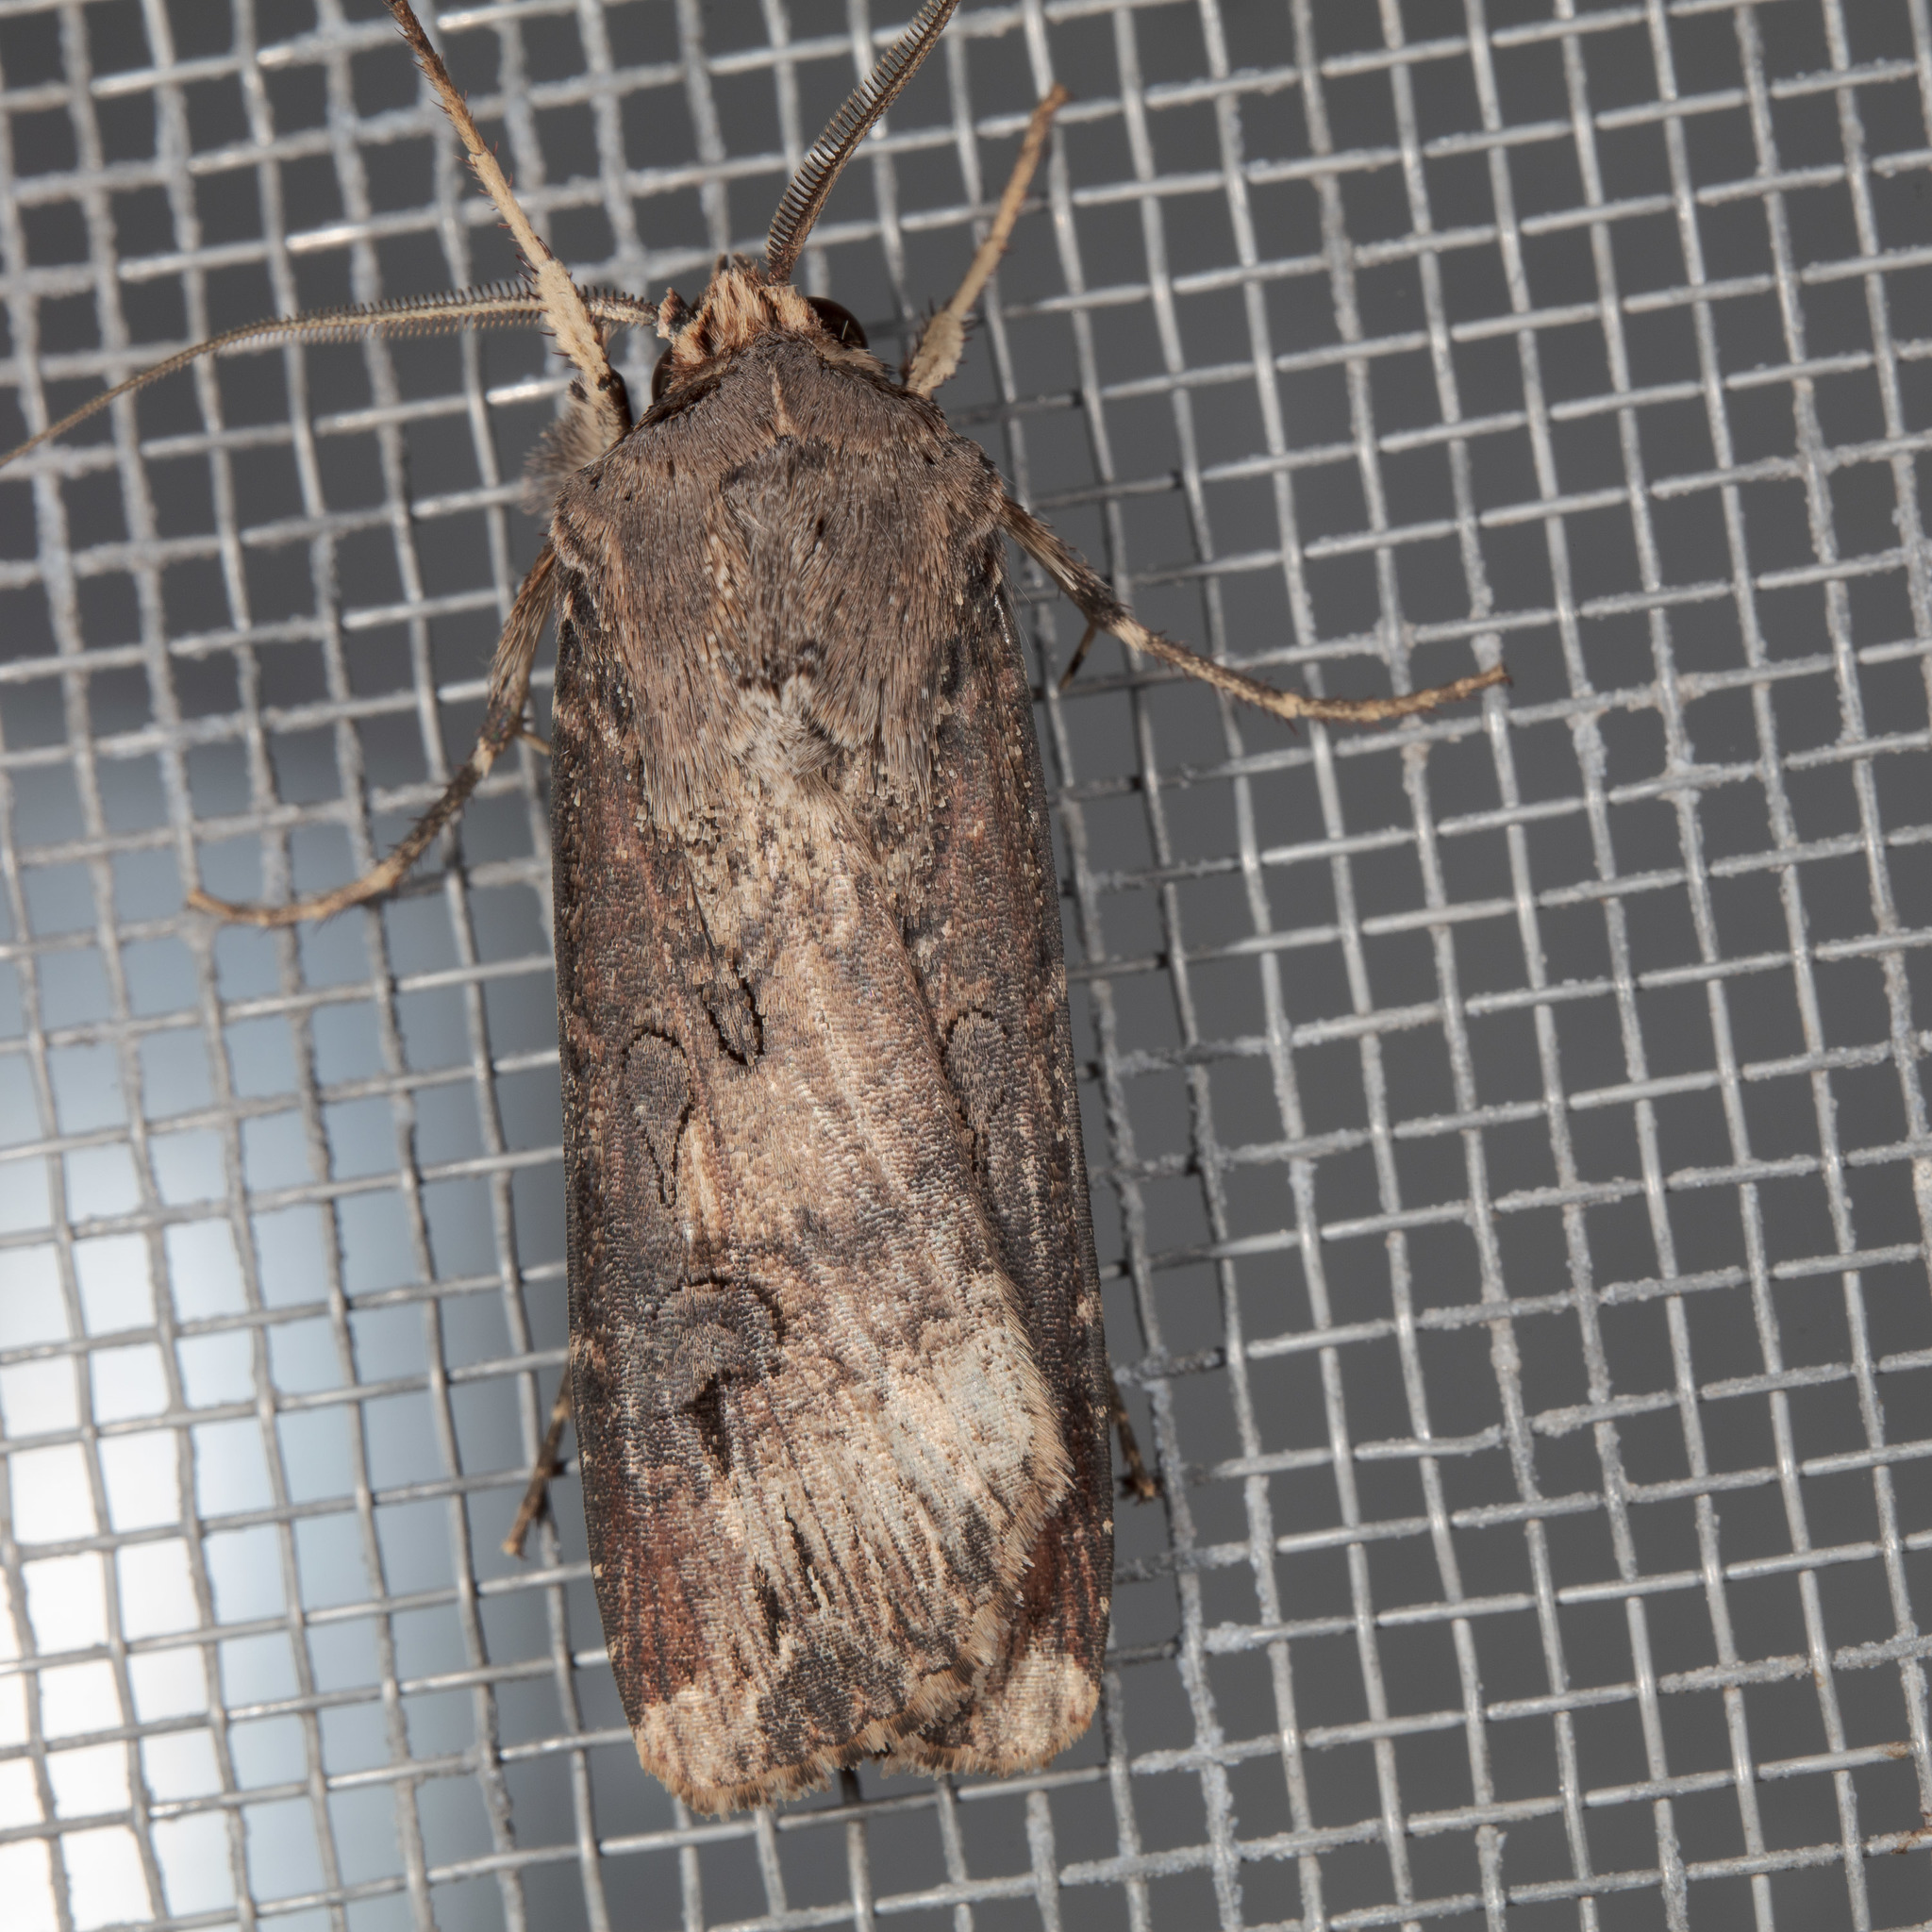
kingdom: Animalia
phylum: Arthropoda
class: Insecta
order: Lepidoptera
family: Noctuidae
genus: Agrotis
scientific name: Agrotis ipsilon
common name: Dark sword-grass
